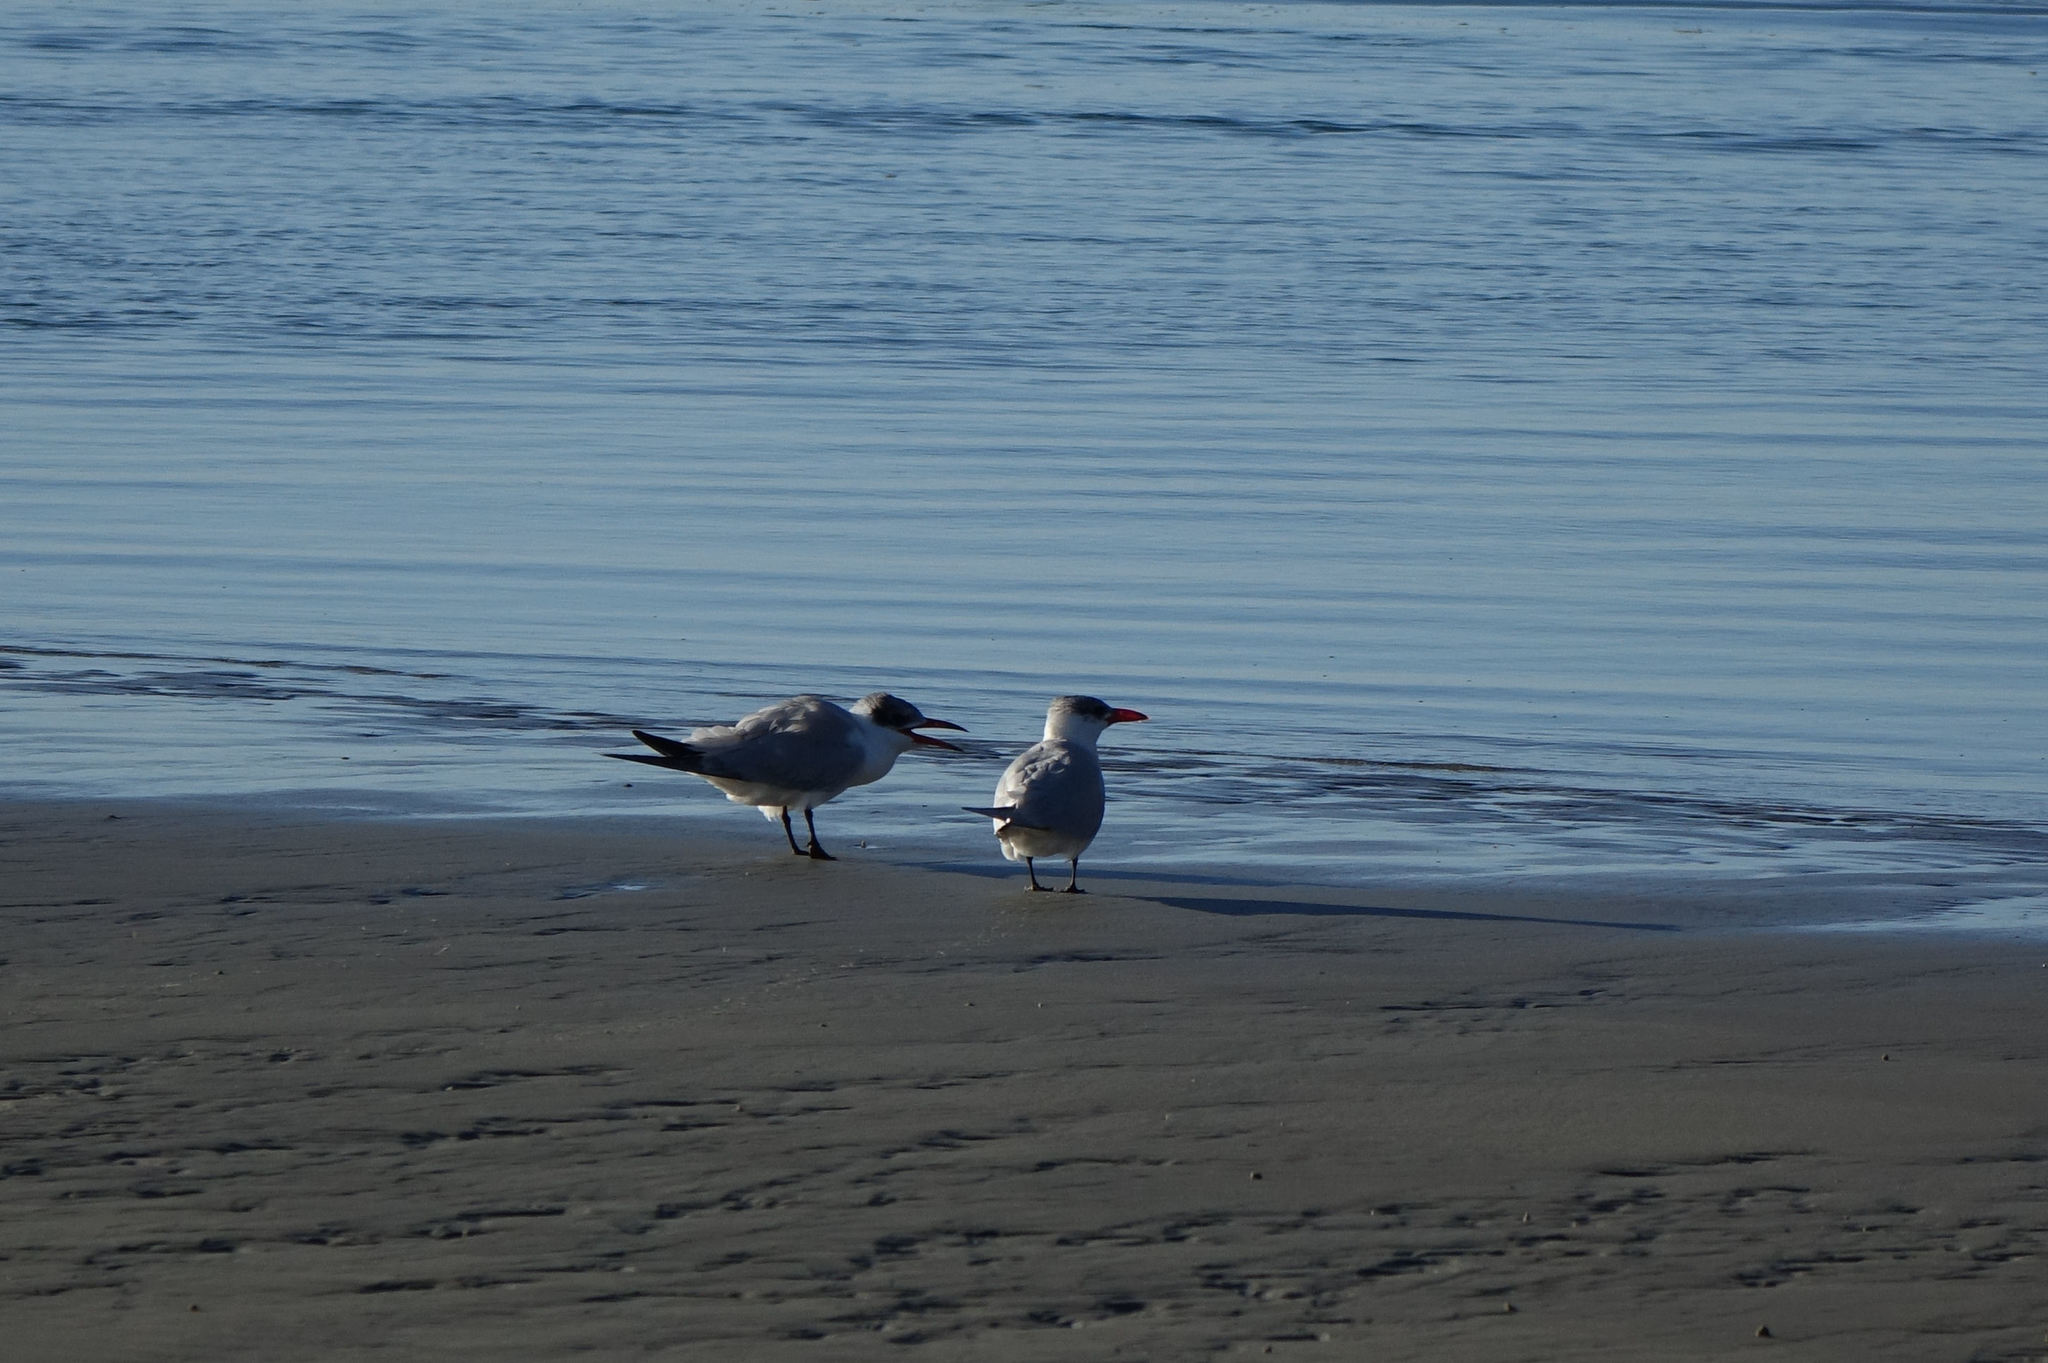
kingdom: Animalia
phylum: Chordata
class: Aves
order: Charadriiformes
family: Laridae
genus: Hydroprogne
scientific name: Hydroprogne caspia
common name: Caspian tern
